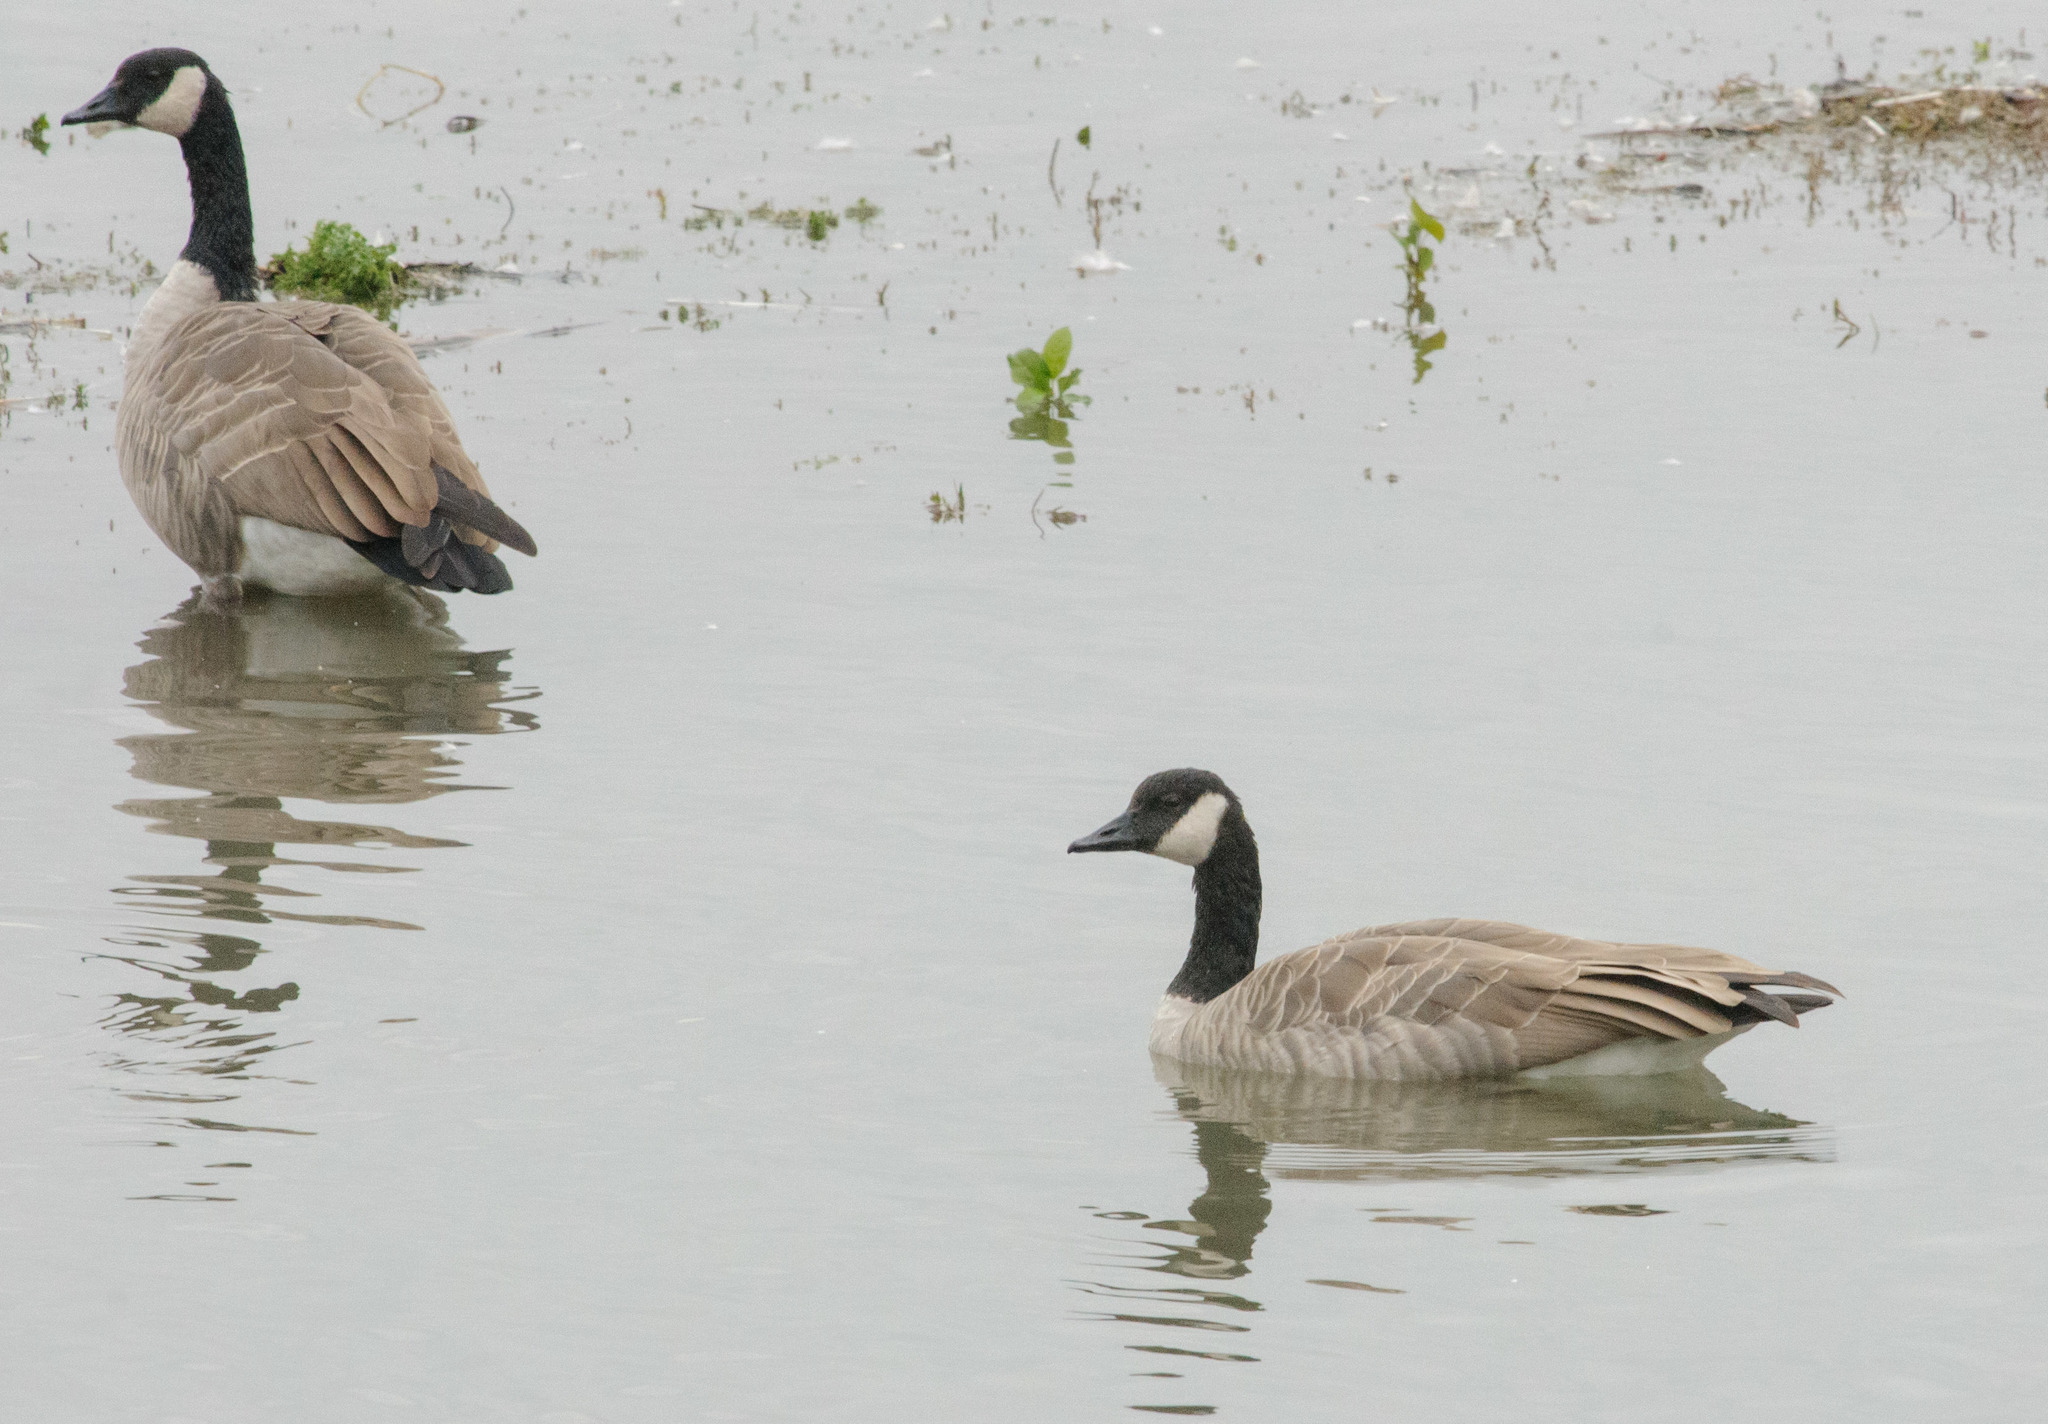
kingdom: Animalia
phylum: Chordata
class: Aves
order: Anseriformes
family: Anatidae
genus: Branta
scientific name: Branta canadensis
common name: Canada goose
